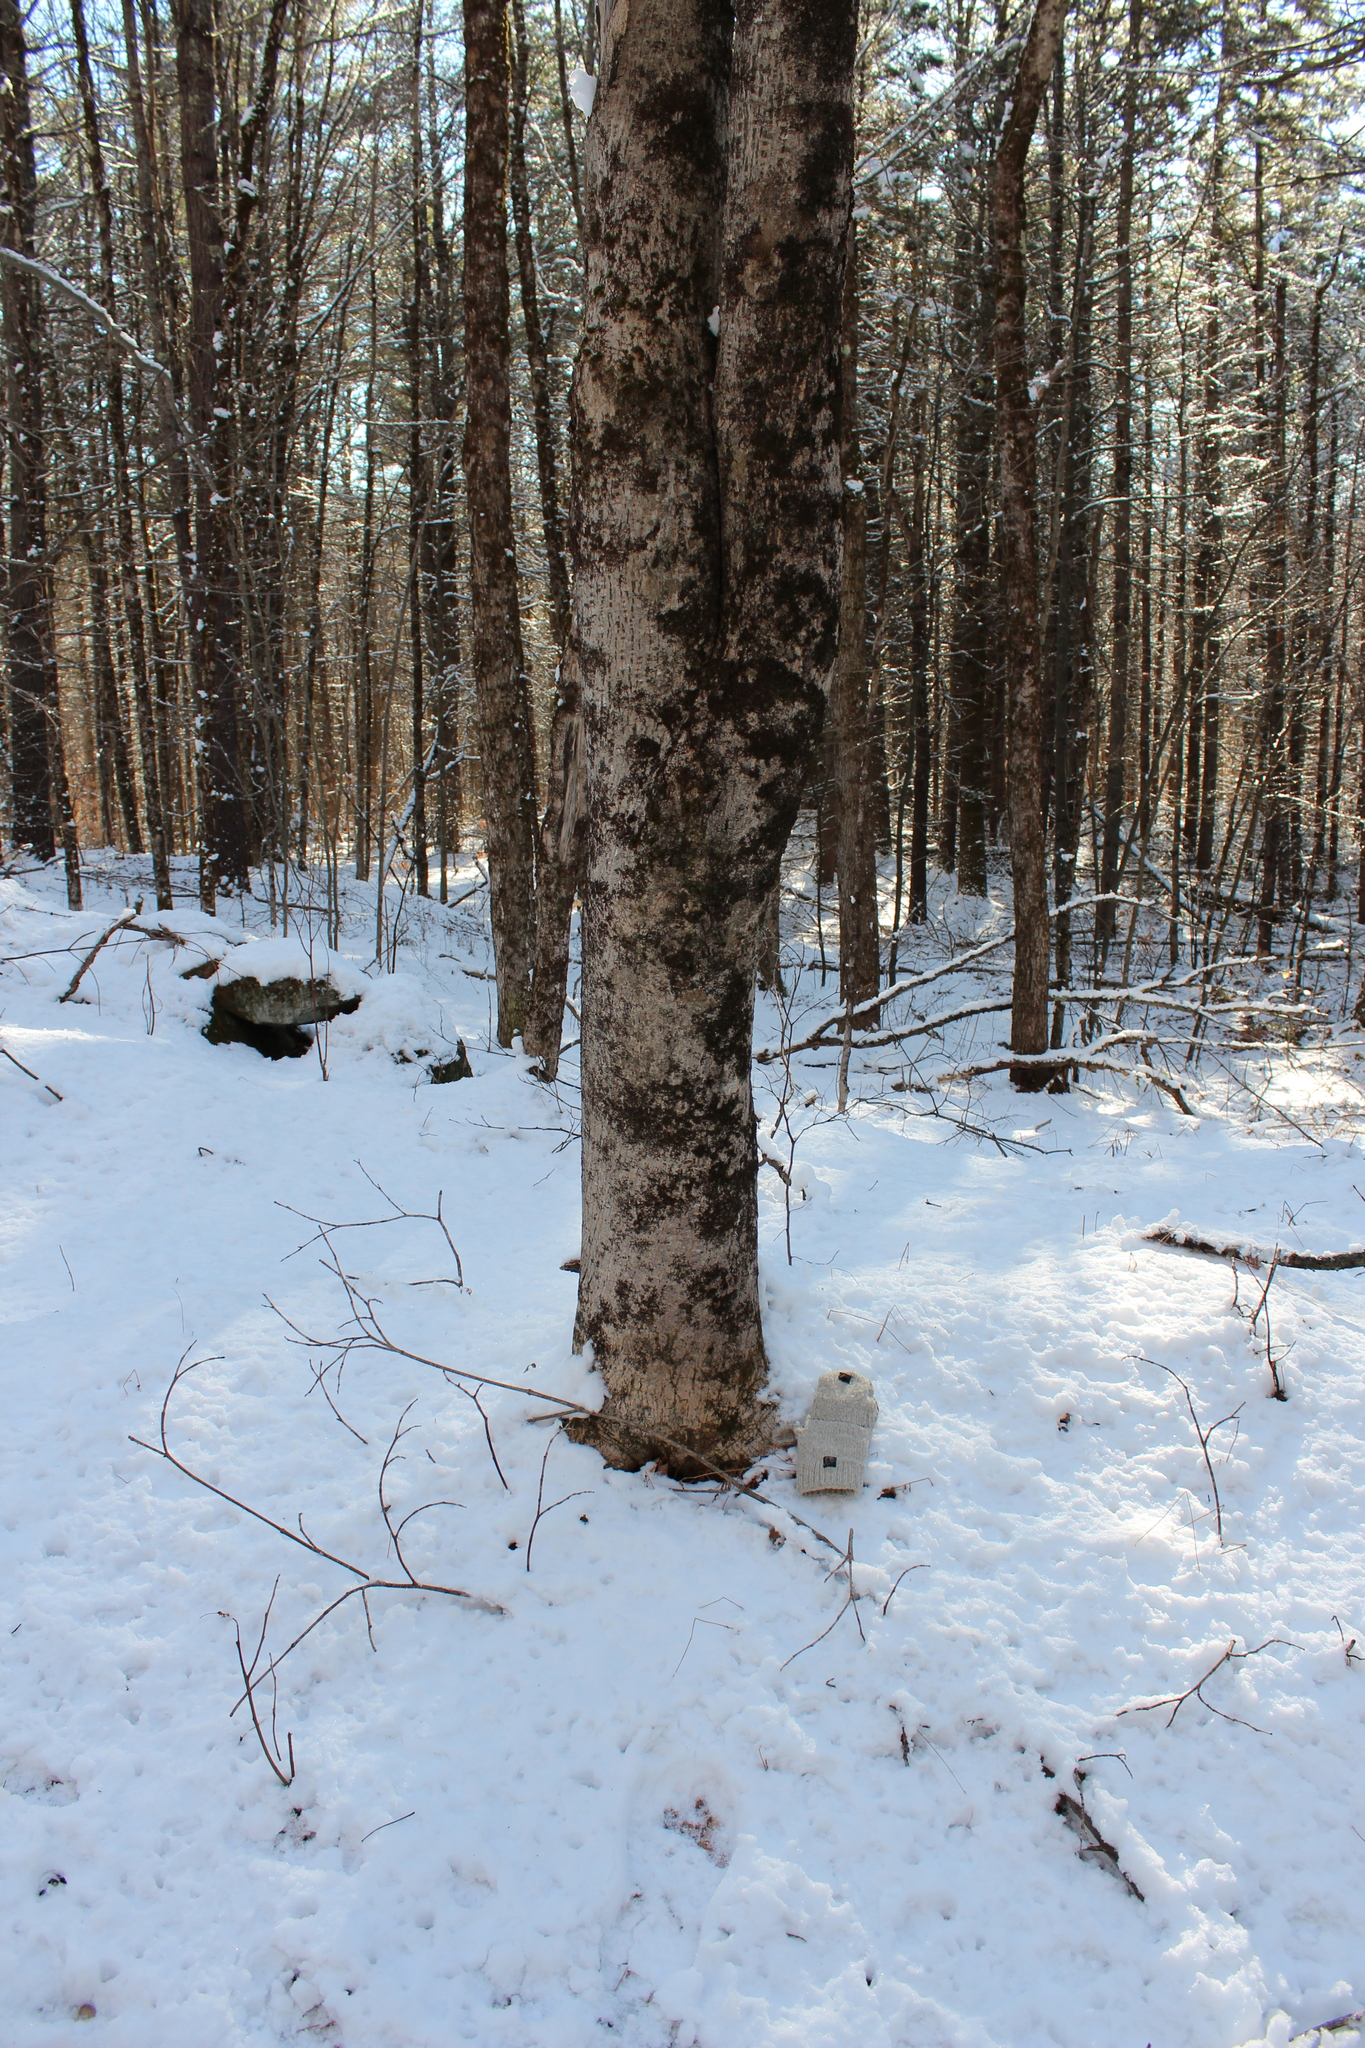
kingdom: Plantae
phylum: Tracheophyta
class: Magnoliopsida
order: Sapindales
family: Sapindaceae
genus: Acer
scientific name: Acer pensylvanicum
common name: Moosewood
